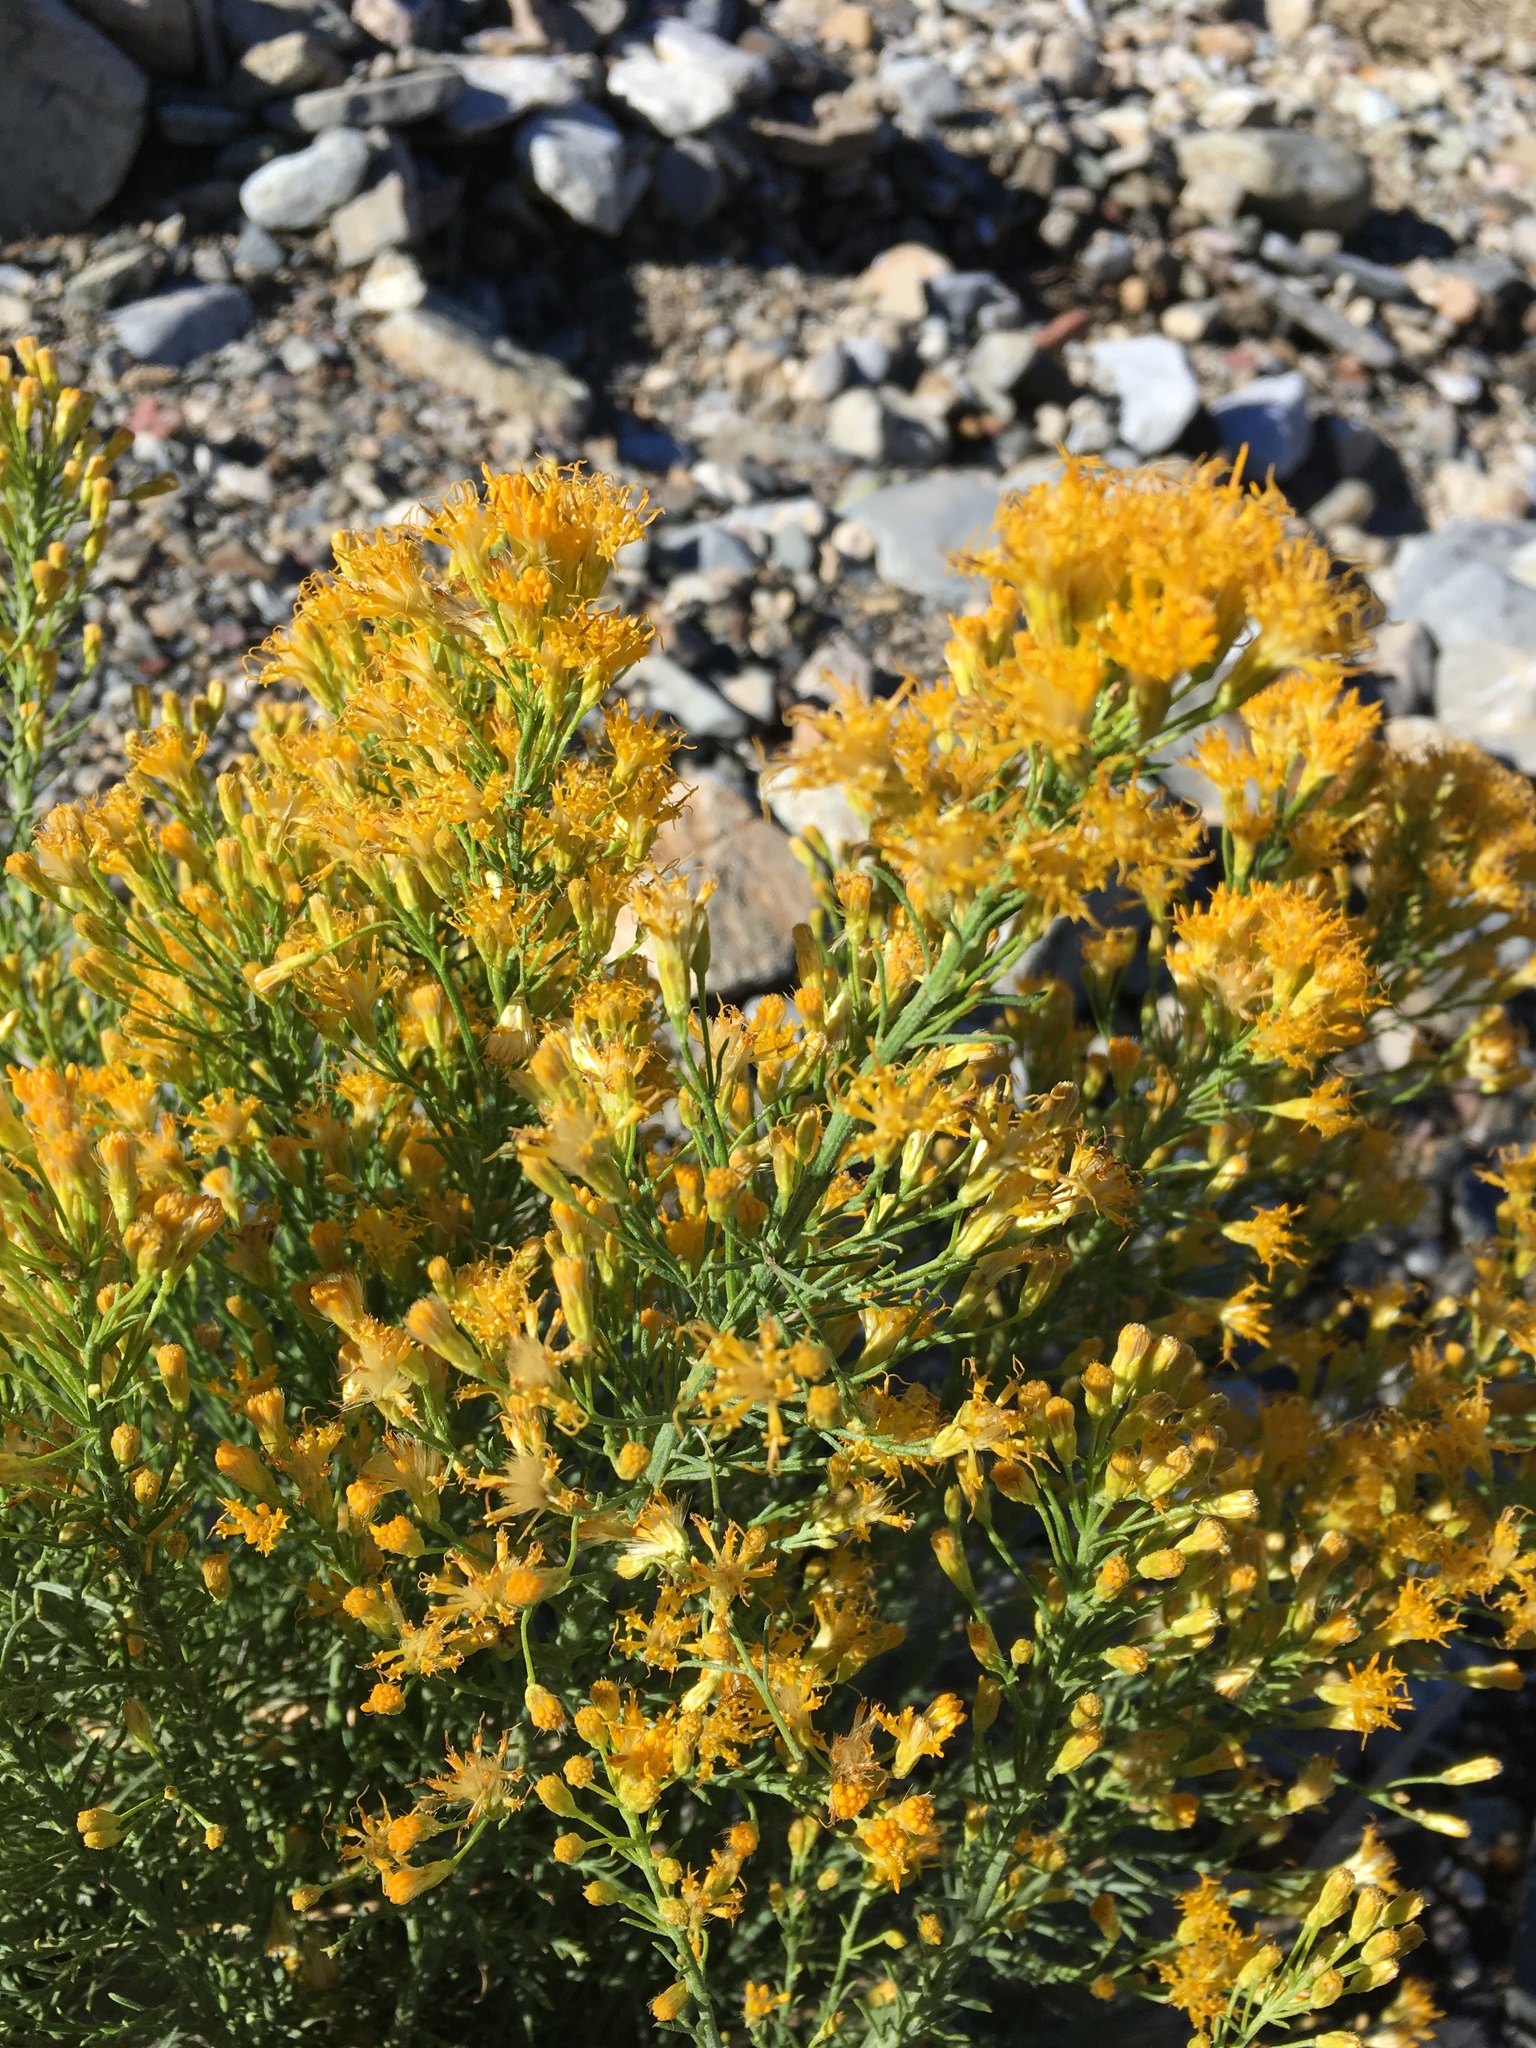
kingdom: Plantae
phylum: Tracheophyta
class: Magnoliopsida
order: Asterales
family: Asteraceae
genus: Ericameria
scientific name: Ericameria paniculata
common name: Punctate rabbitbrush
